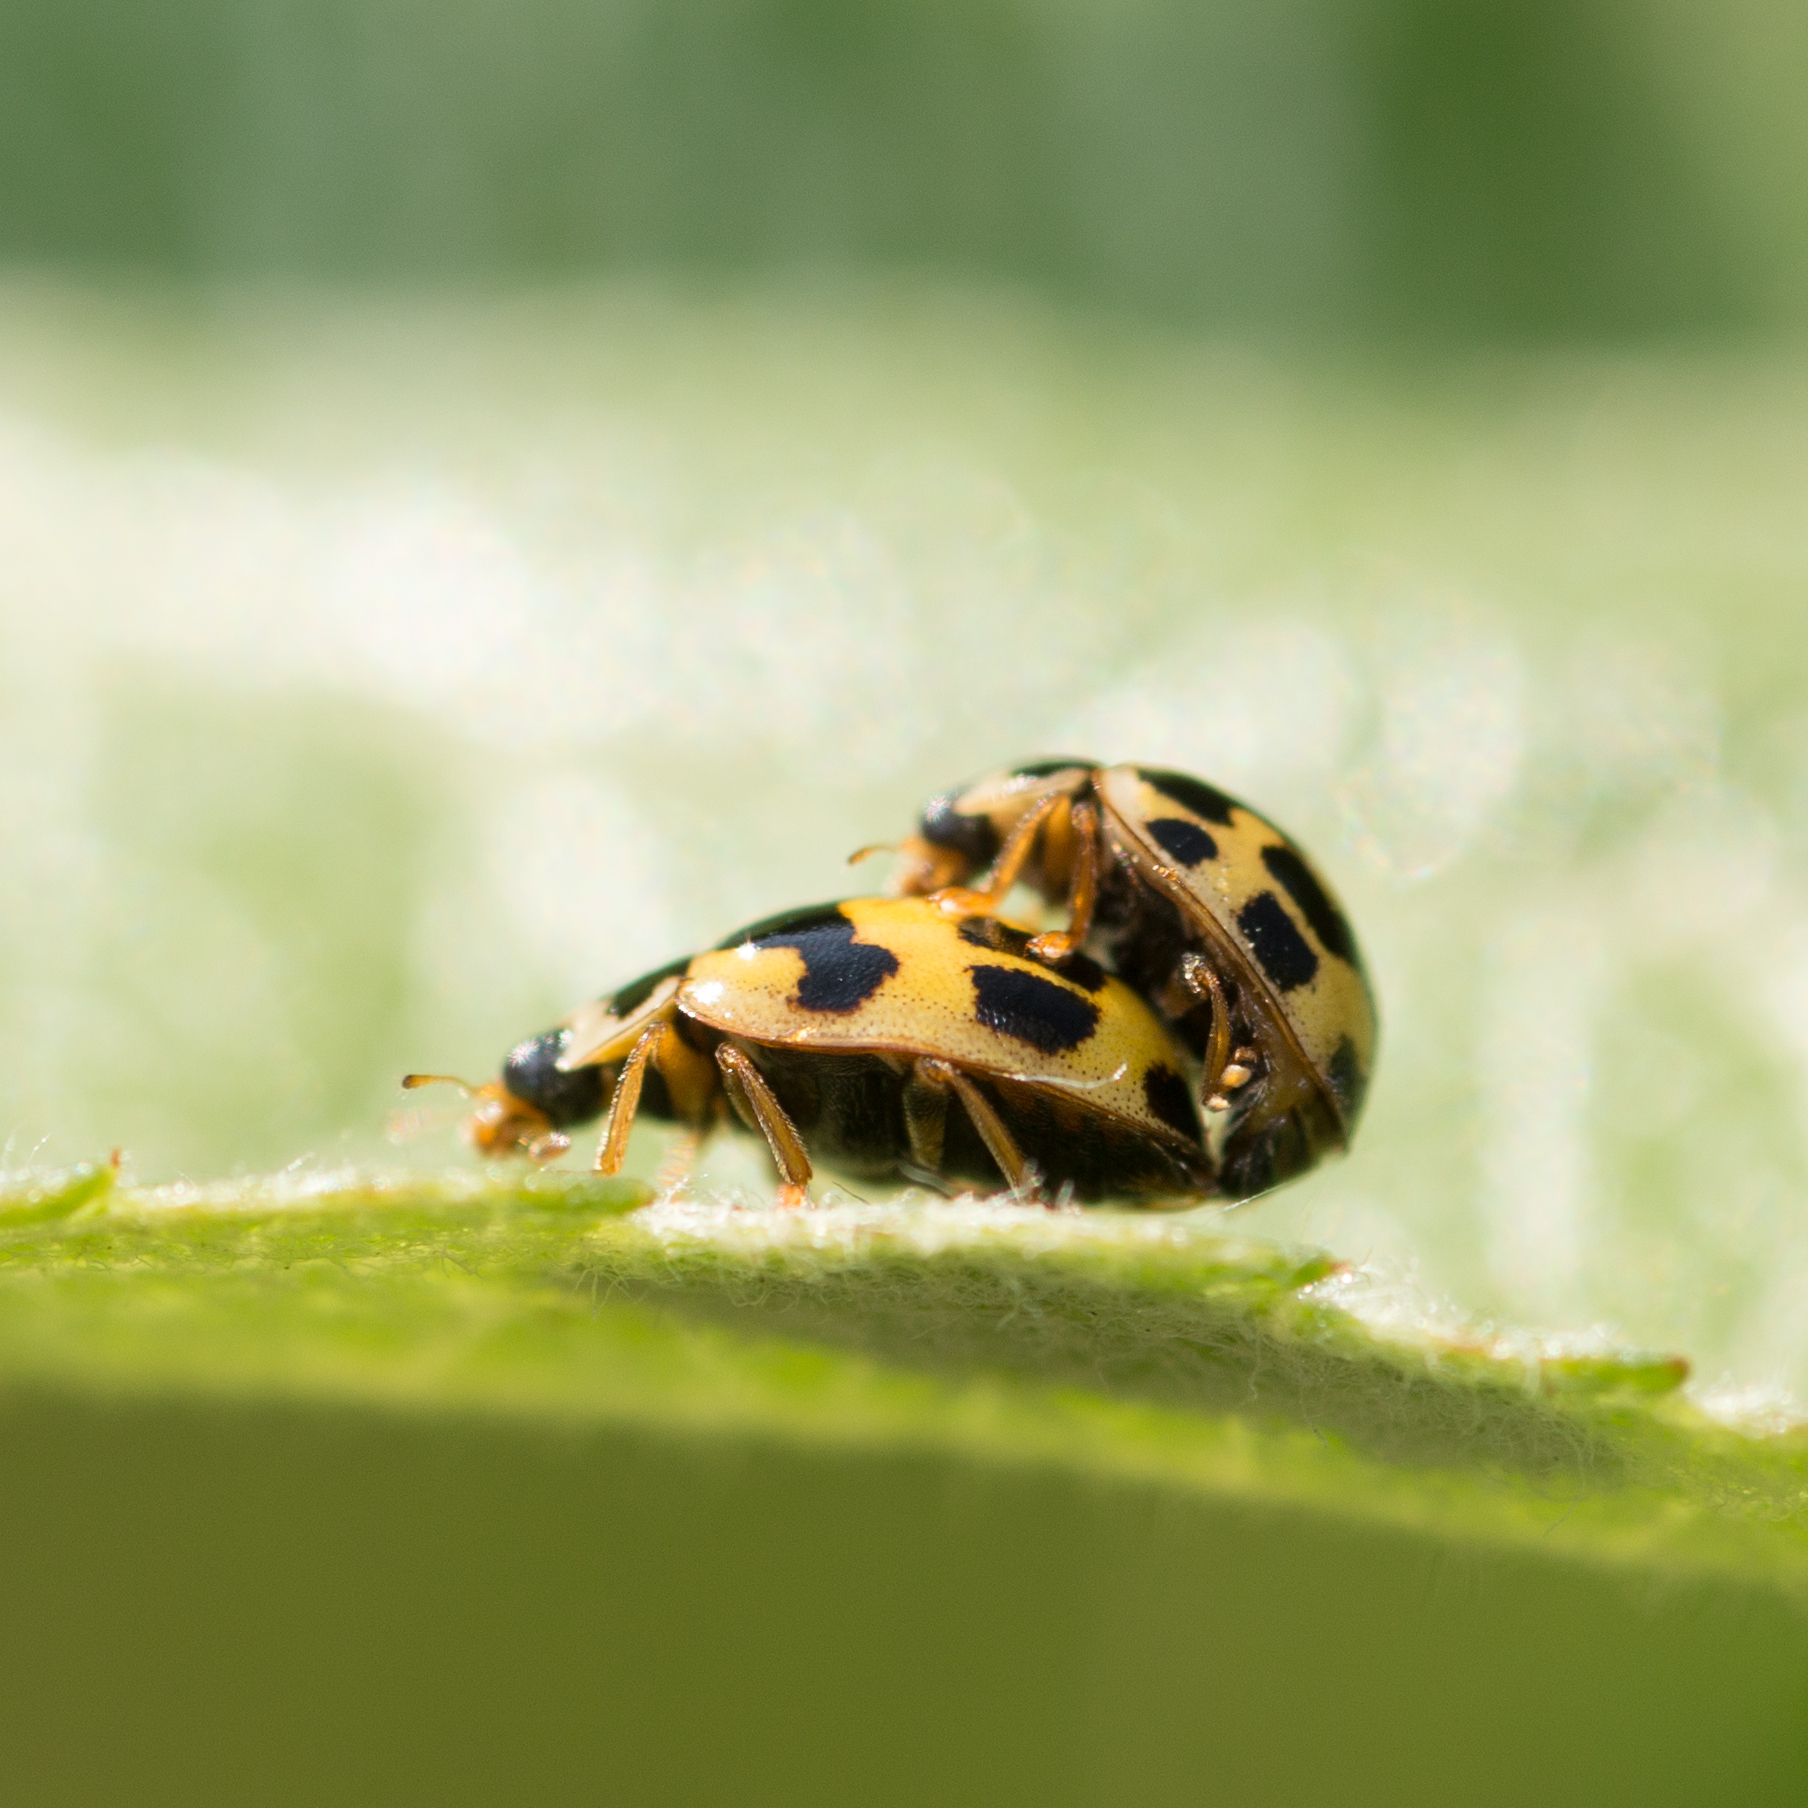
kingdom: Animalia
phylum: Arthropoda
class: Insecta
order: Coleoptera
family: Coccinellidae
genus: Propylaea
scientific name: Propylaea quatuordecimpunctata
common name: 14-spotted ladybird beetle
